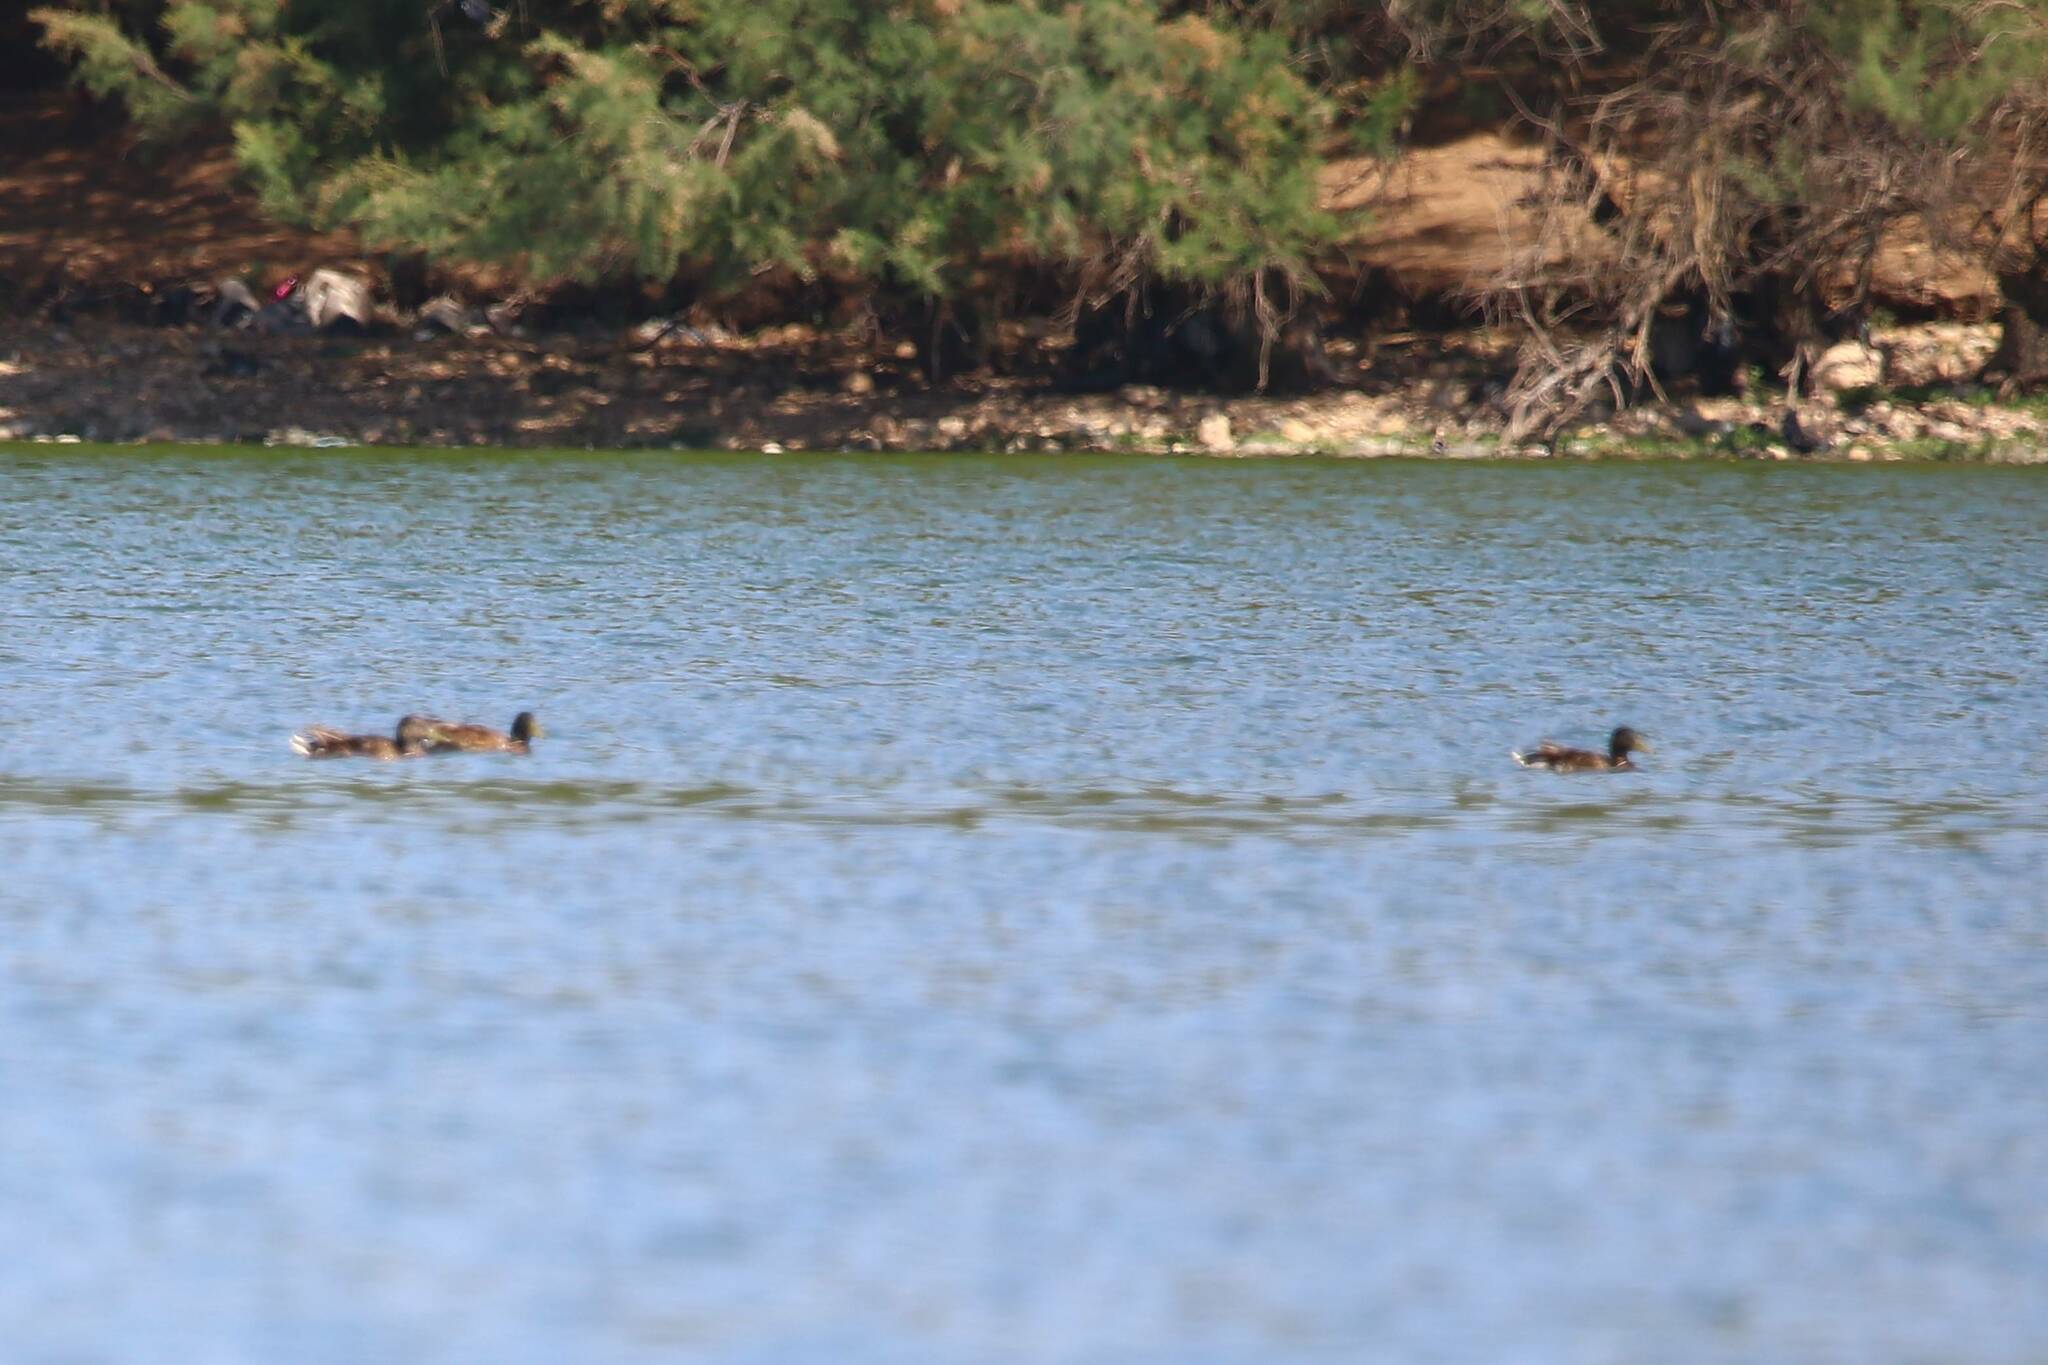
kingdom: Animalia
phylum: Chordata
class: Aves
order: Anseriformes
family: Anatidae
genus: Anas
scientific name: Anas platyrhynchos
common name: Mallard
